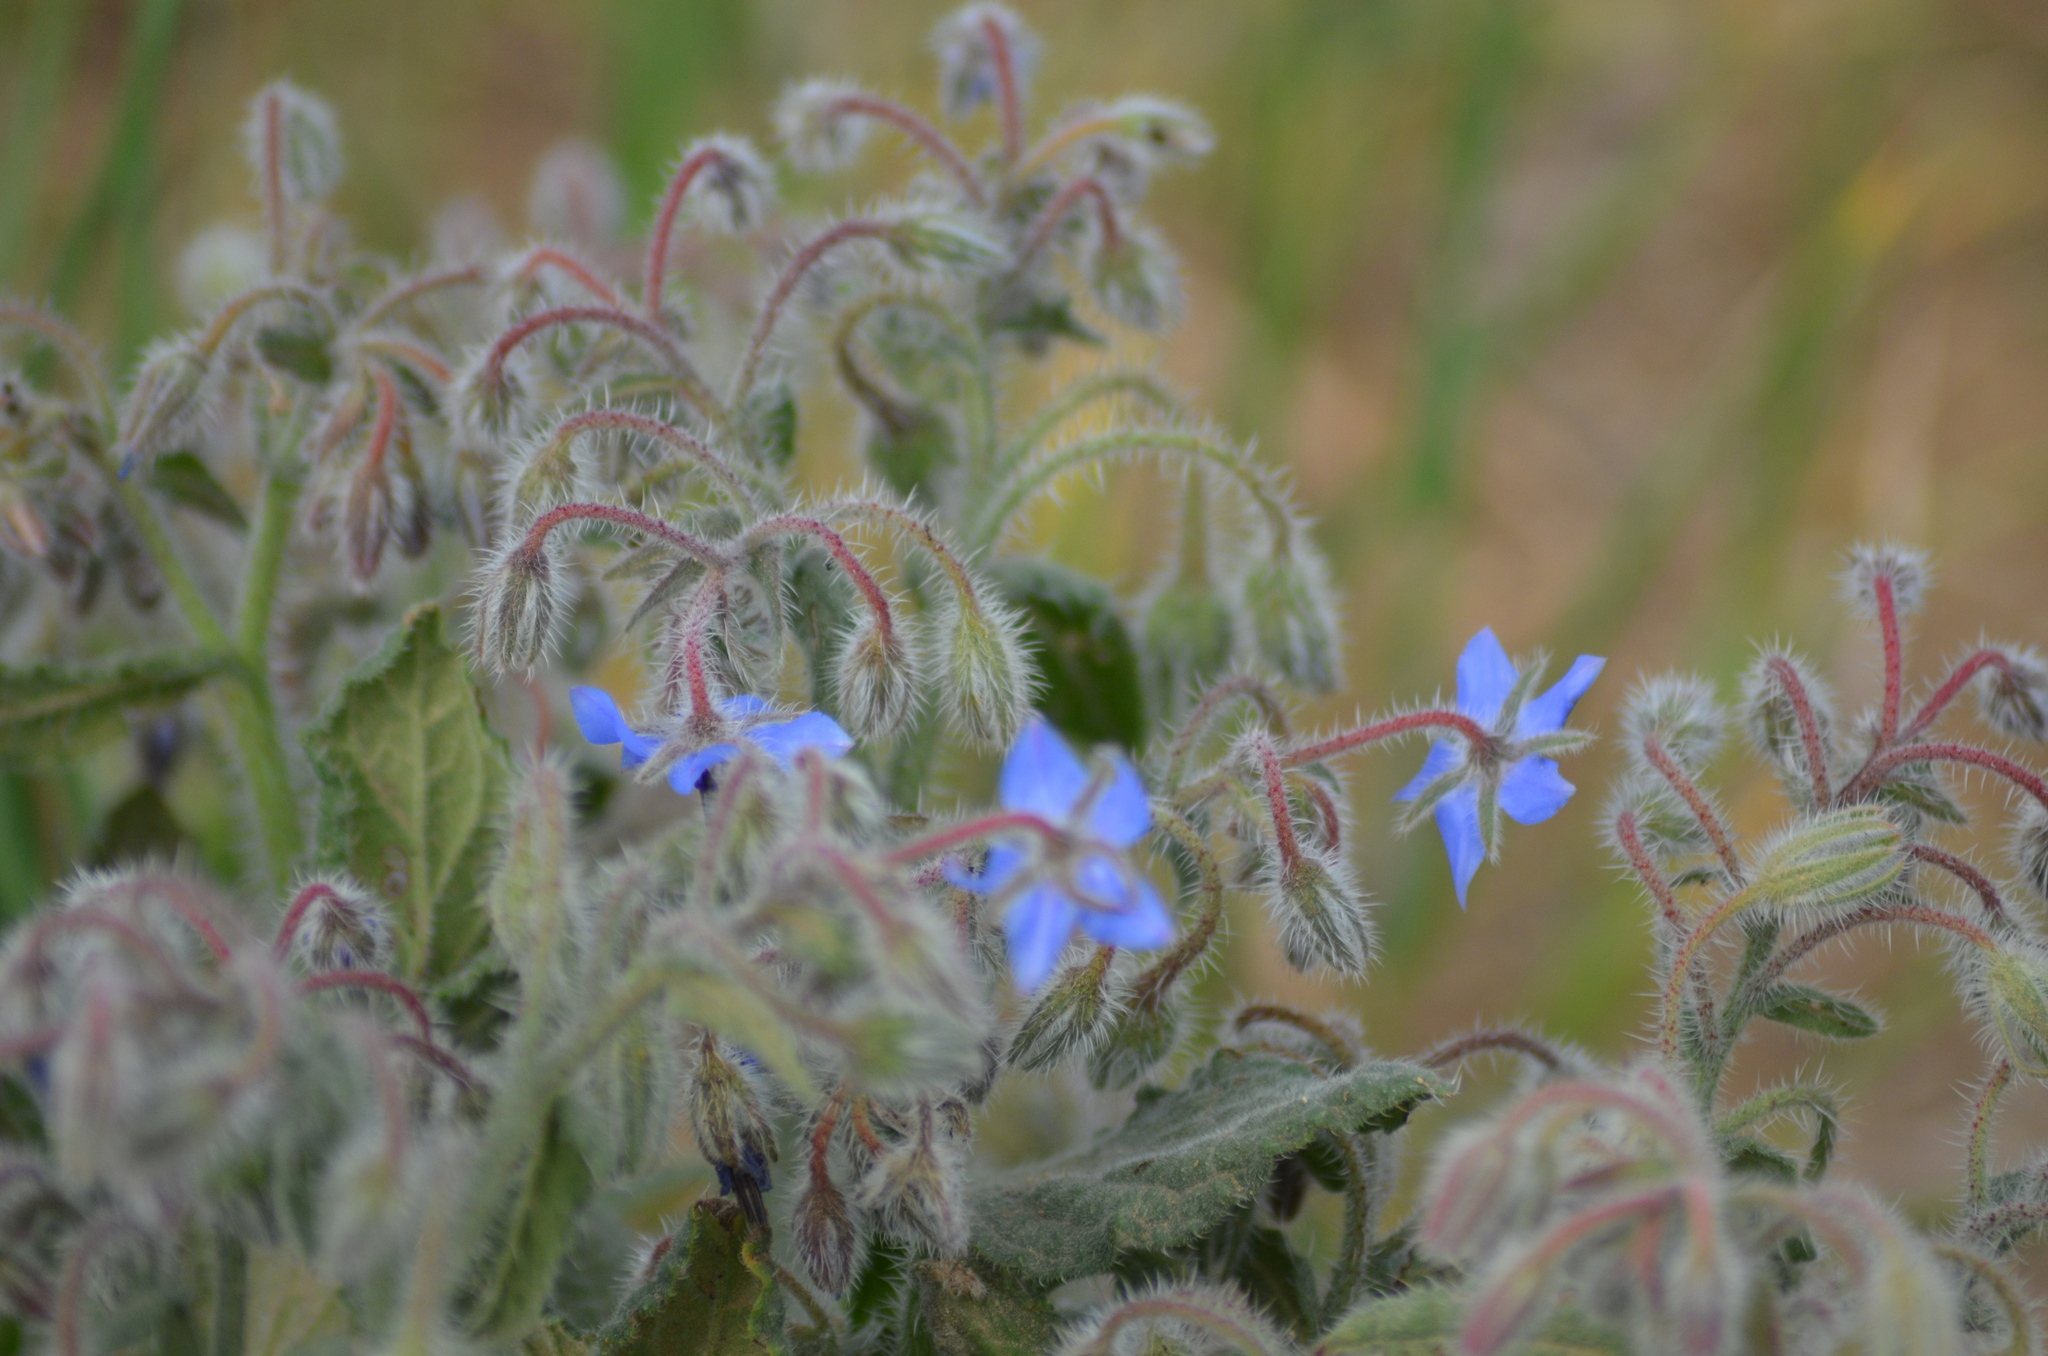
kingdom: Plantae
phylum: Tracheophyta
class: Magnoliopsida
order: Boraginales
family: Boraginaceae
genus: Borago
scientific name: Borago officinalis
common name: Borage
